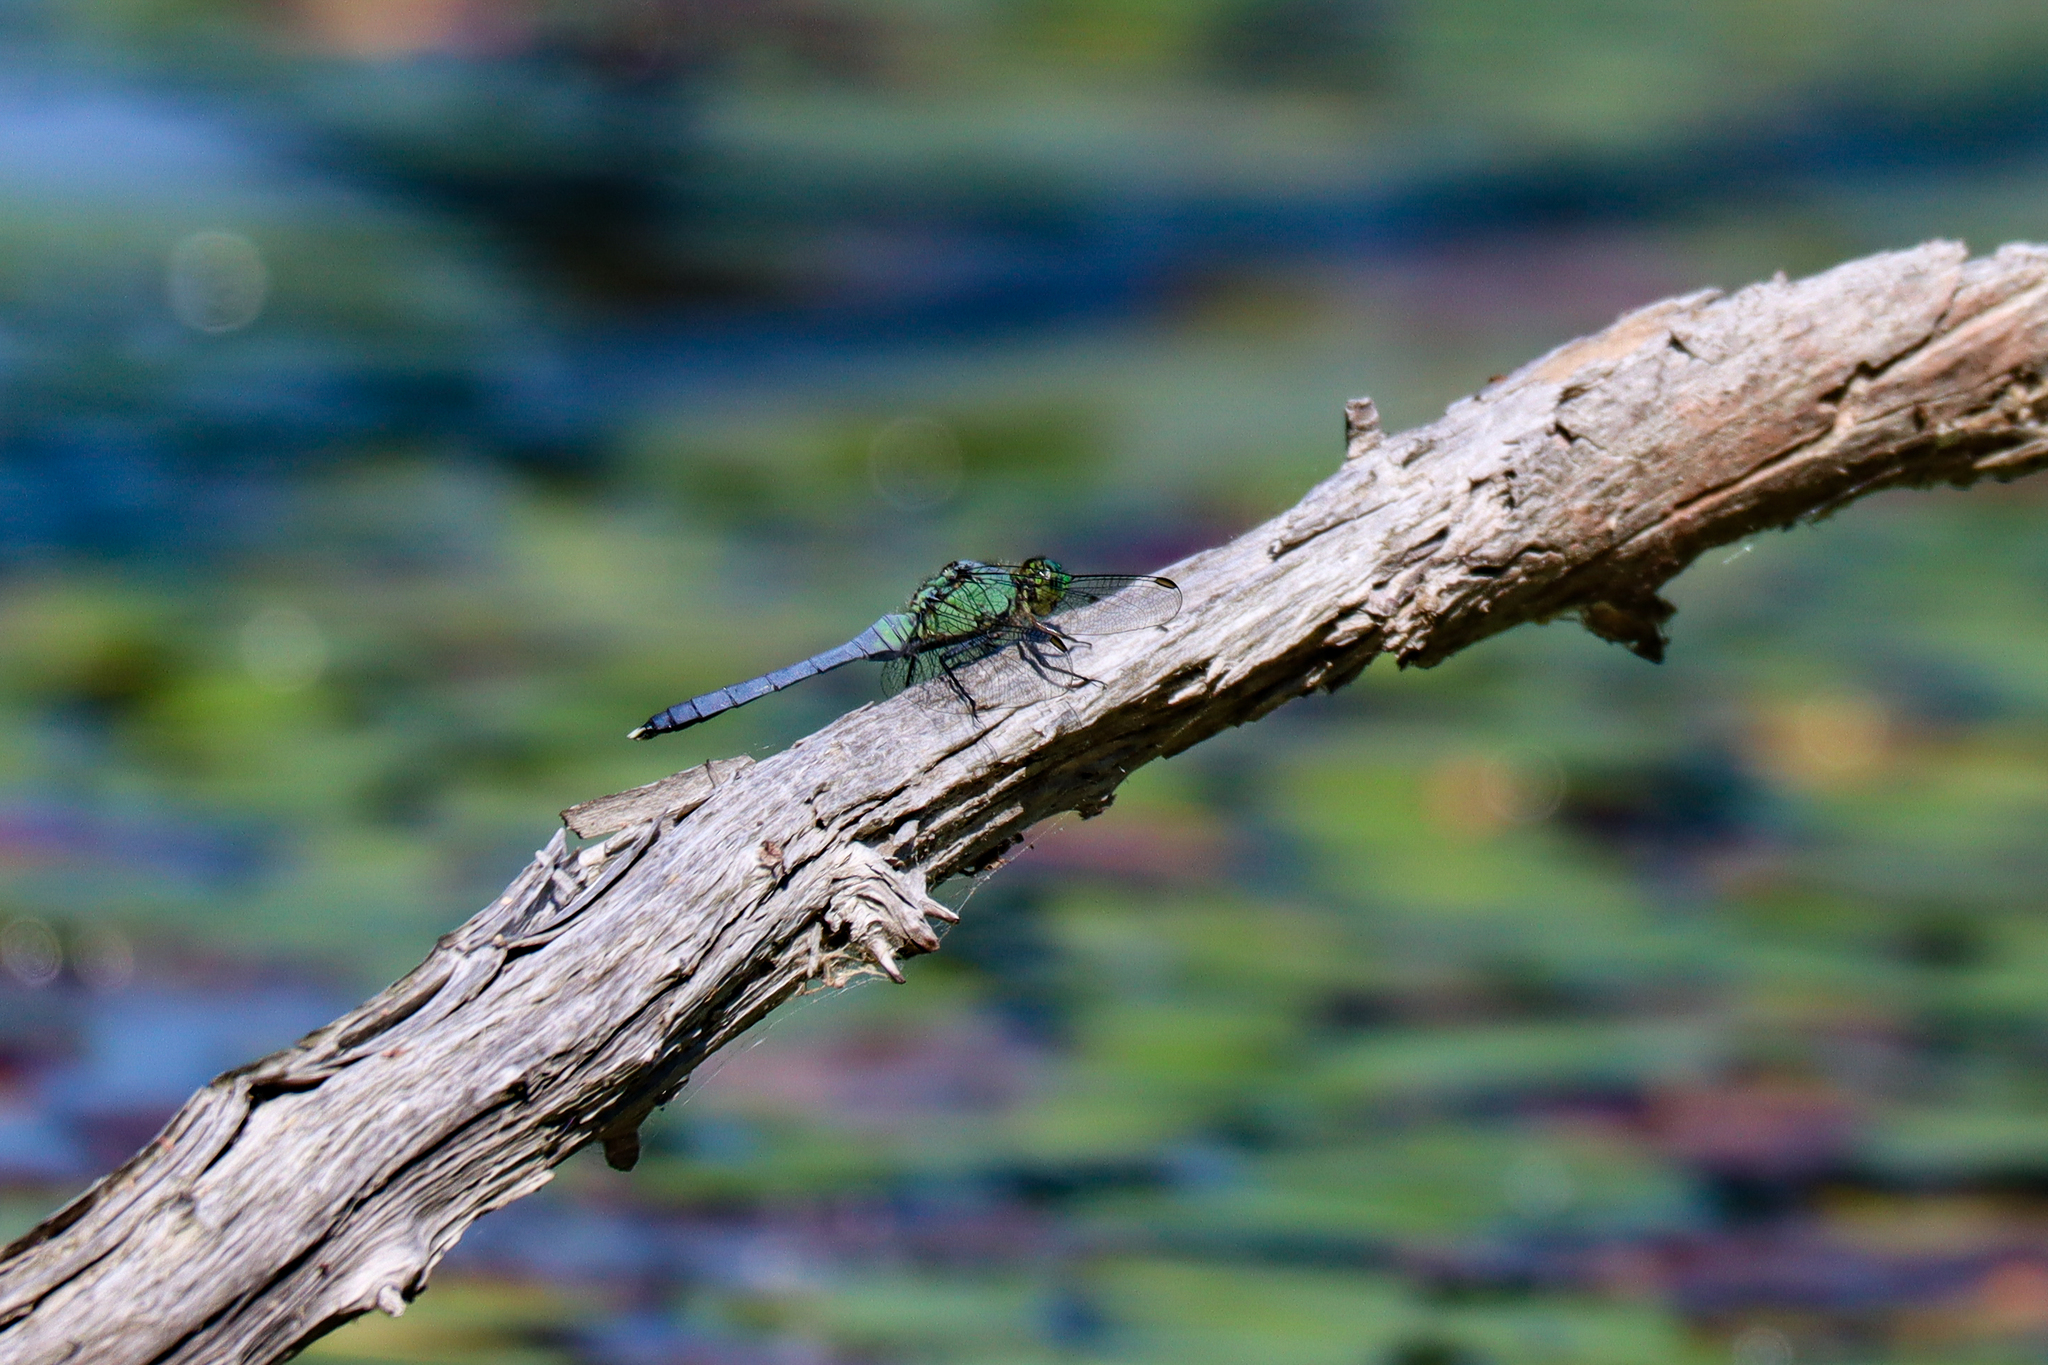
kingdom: Animalia
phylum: Arthropoda
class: Insecta
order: Odonata
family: Libellulidae
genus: Erythemis
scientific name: Erythemis simplicicollis
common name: Eastern pondhawk
